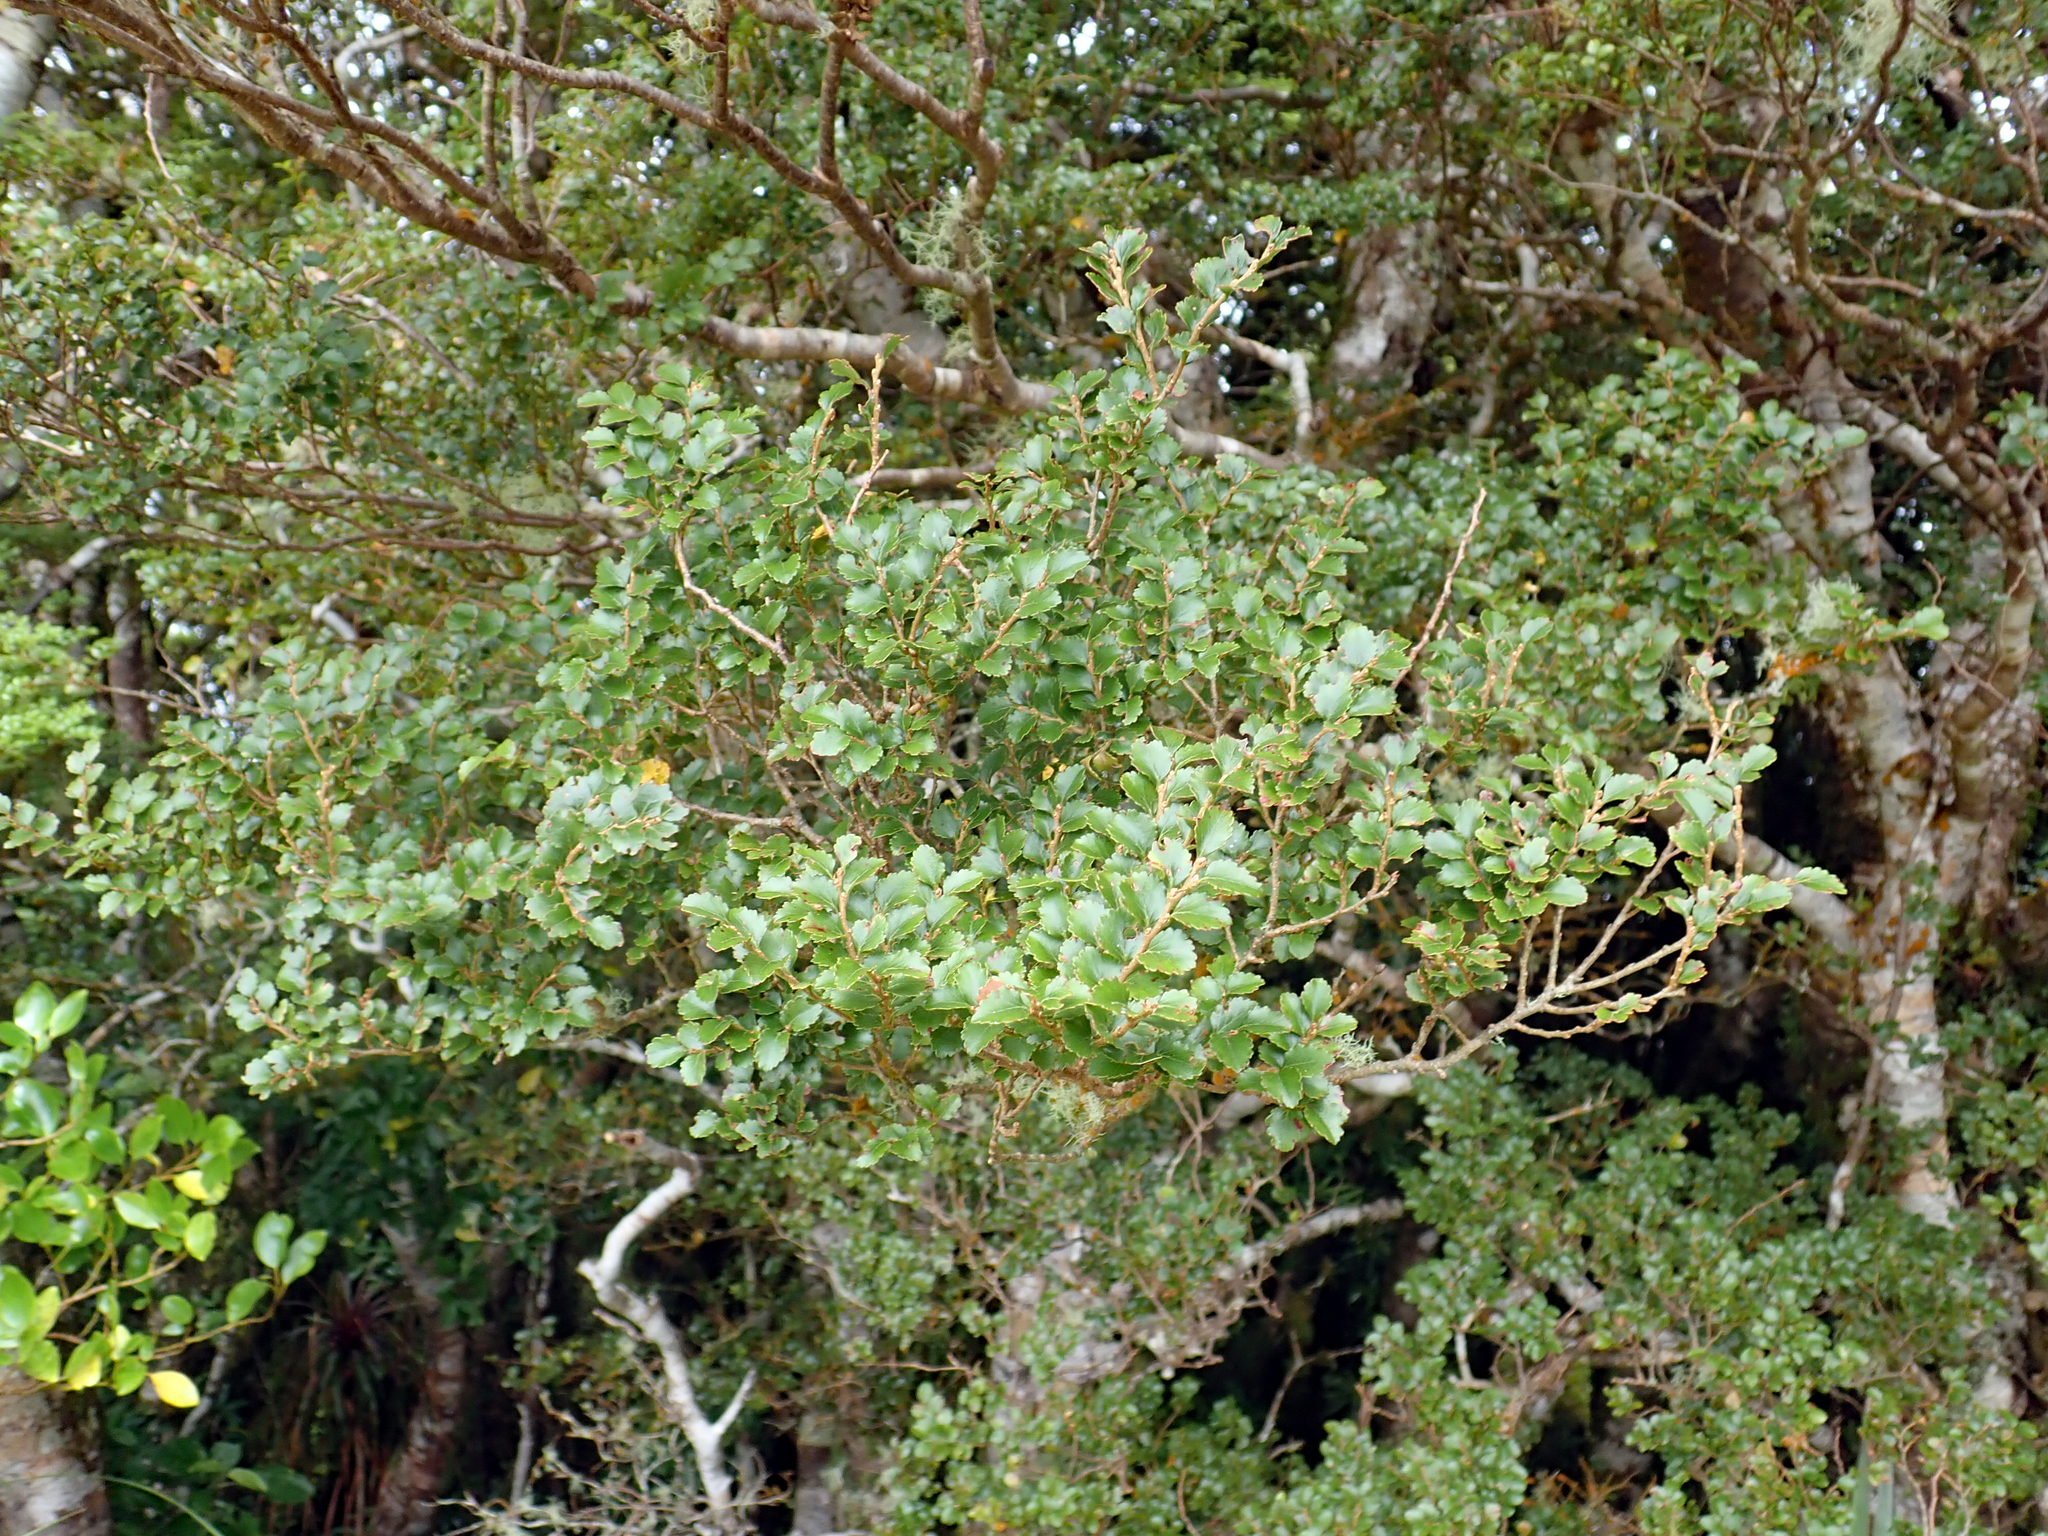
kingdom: Plantae
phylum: Tracheophyta
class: Magnoliopsida
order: Fagales
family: Nothofagaceae
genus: Nothofagus
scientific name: Nothofagus menziesii
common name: Silver beech
